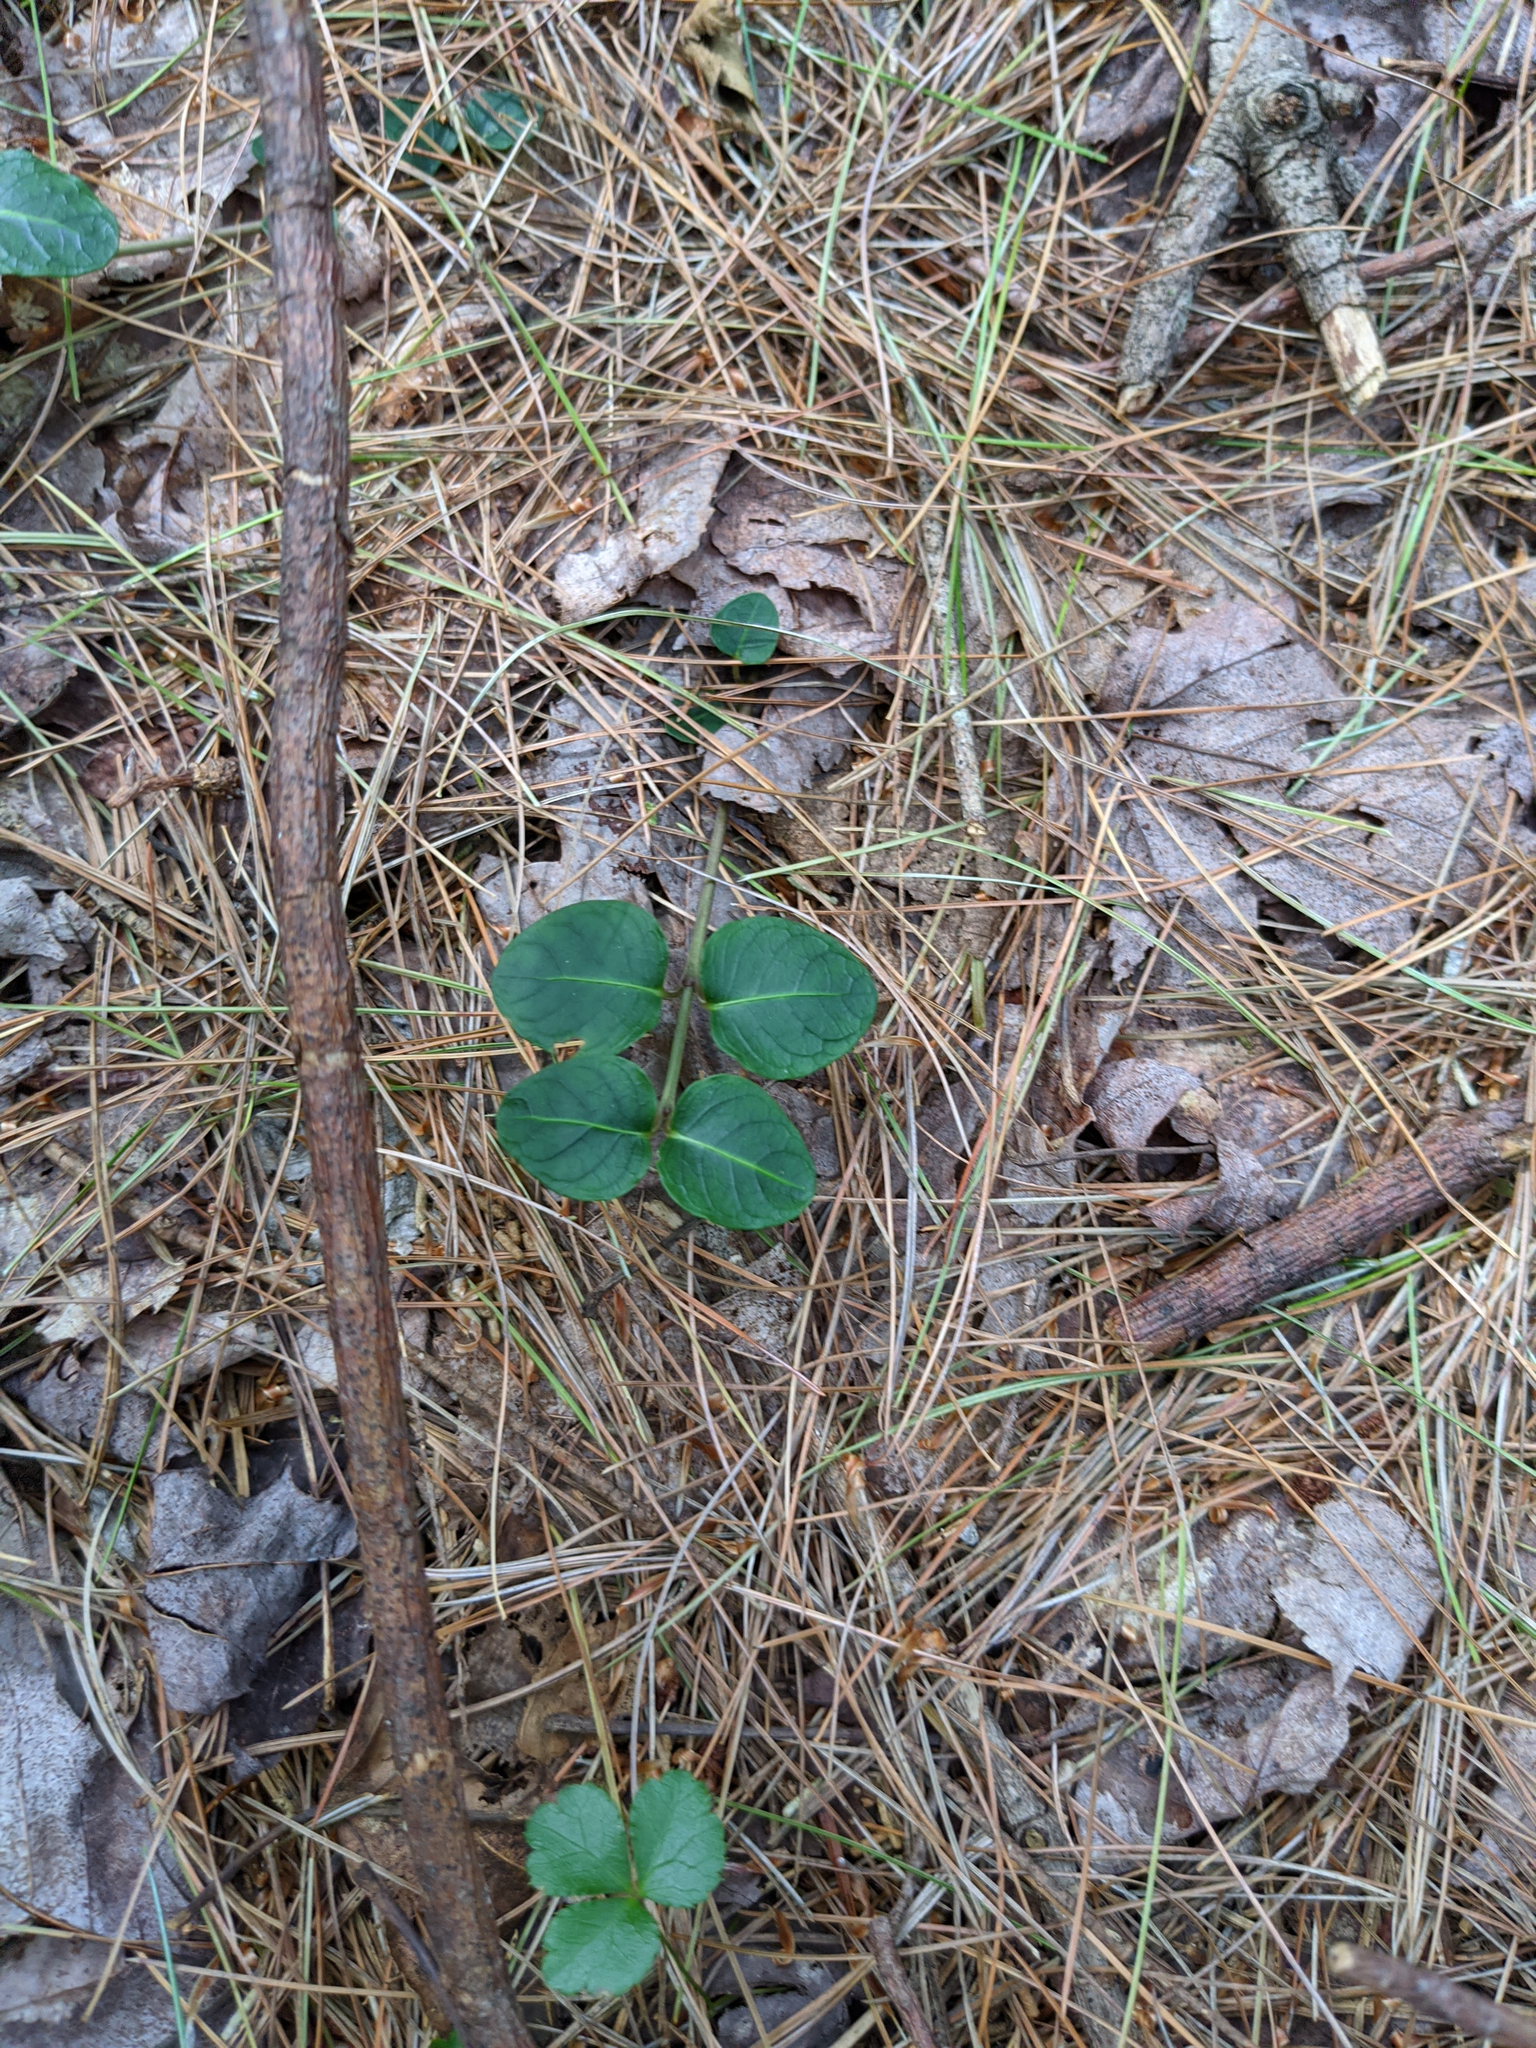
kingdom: Plantae
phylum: Tracheophyta
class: Magnoliopsida
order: Ranunculales
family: Ranunculaceae
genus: Coptis
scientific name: Coptis trifolia
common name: Canker-root
